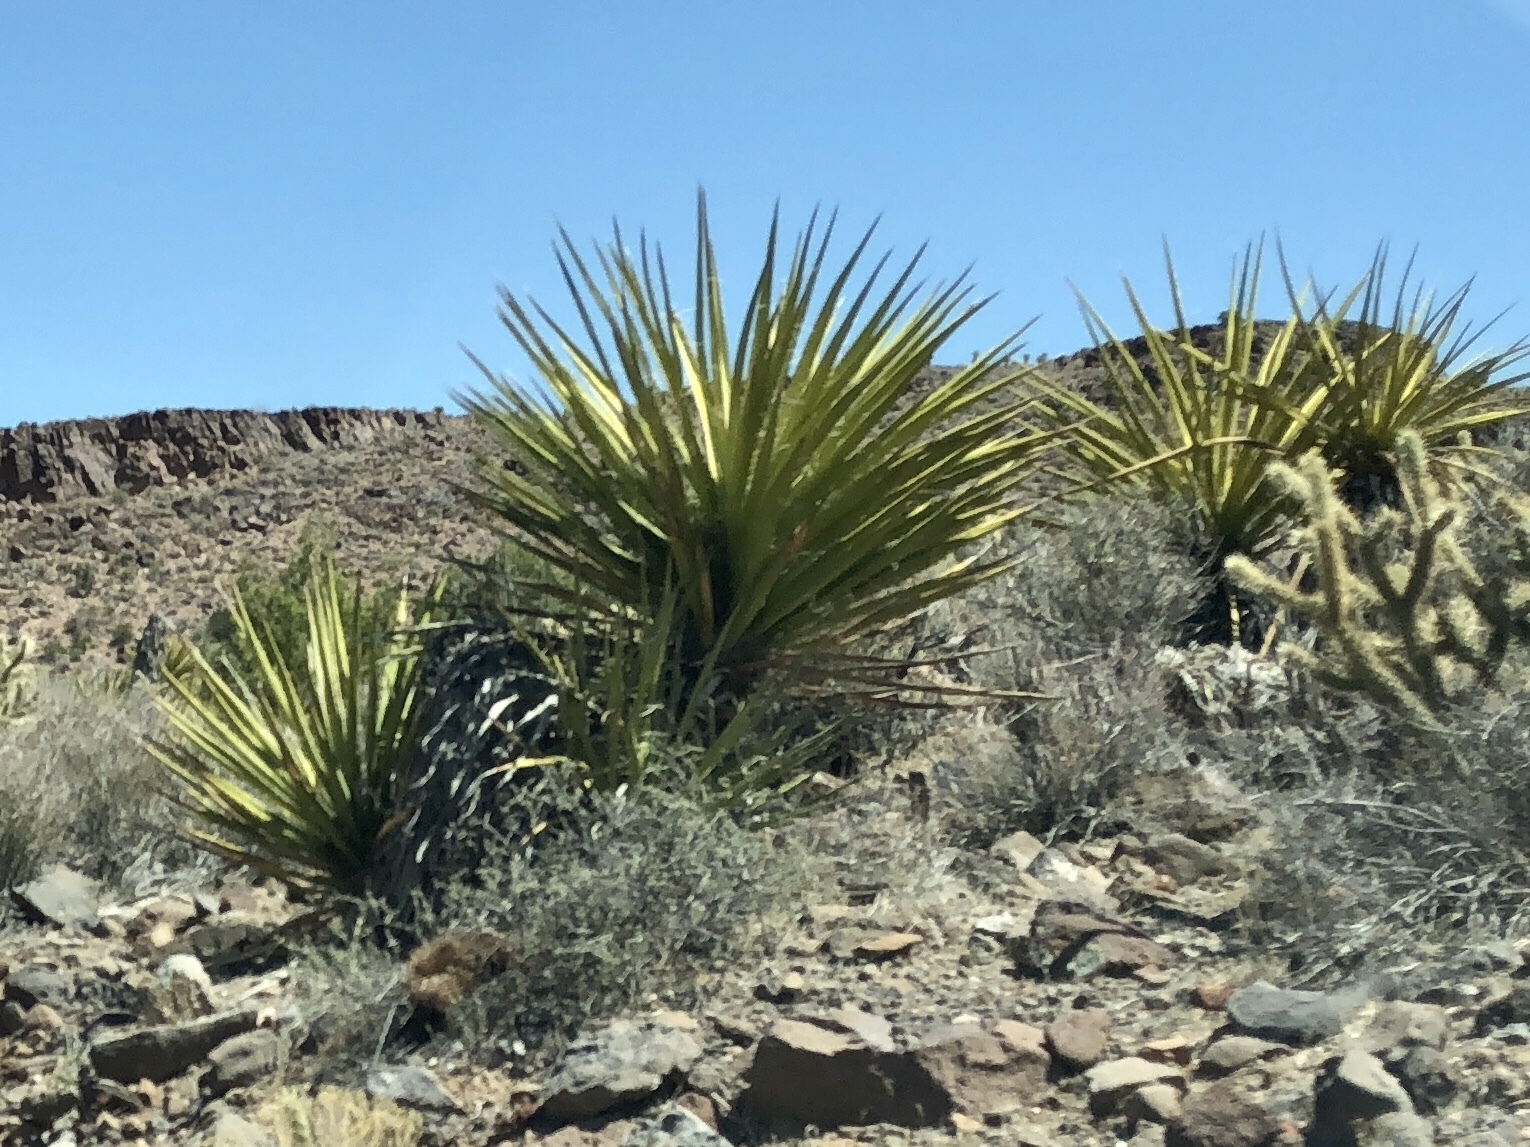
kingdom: Plantae
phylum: Tracheophyta
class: Liliopsida
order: Asparagales
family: Asparagaceae
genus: Yucca
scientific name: Yucca schidigera
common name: Mojave yucca
